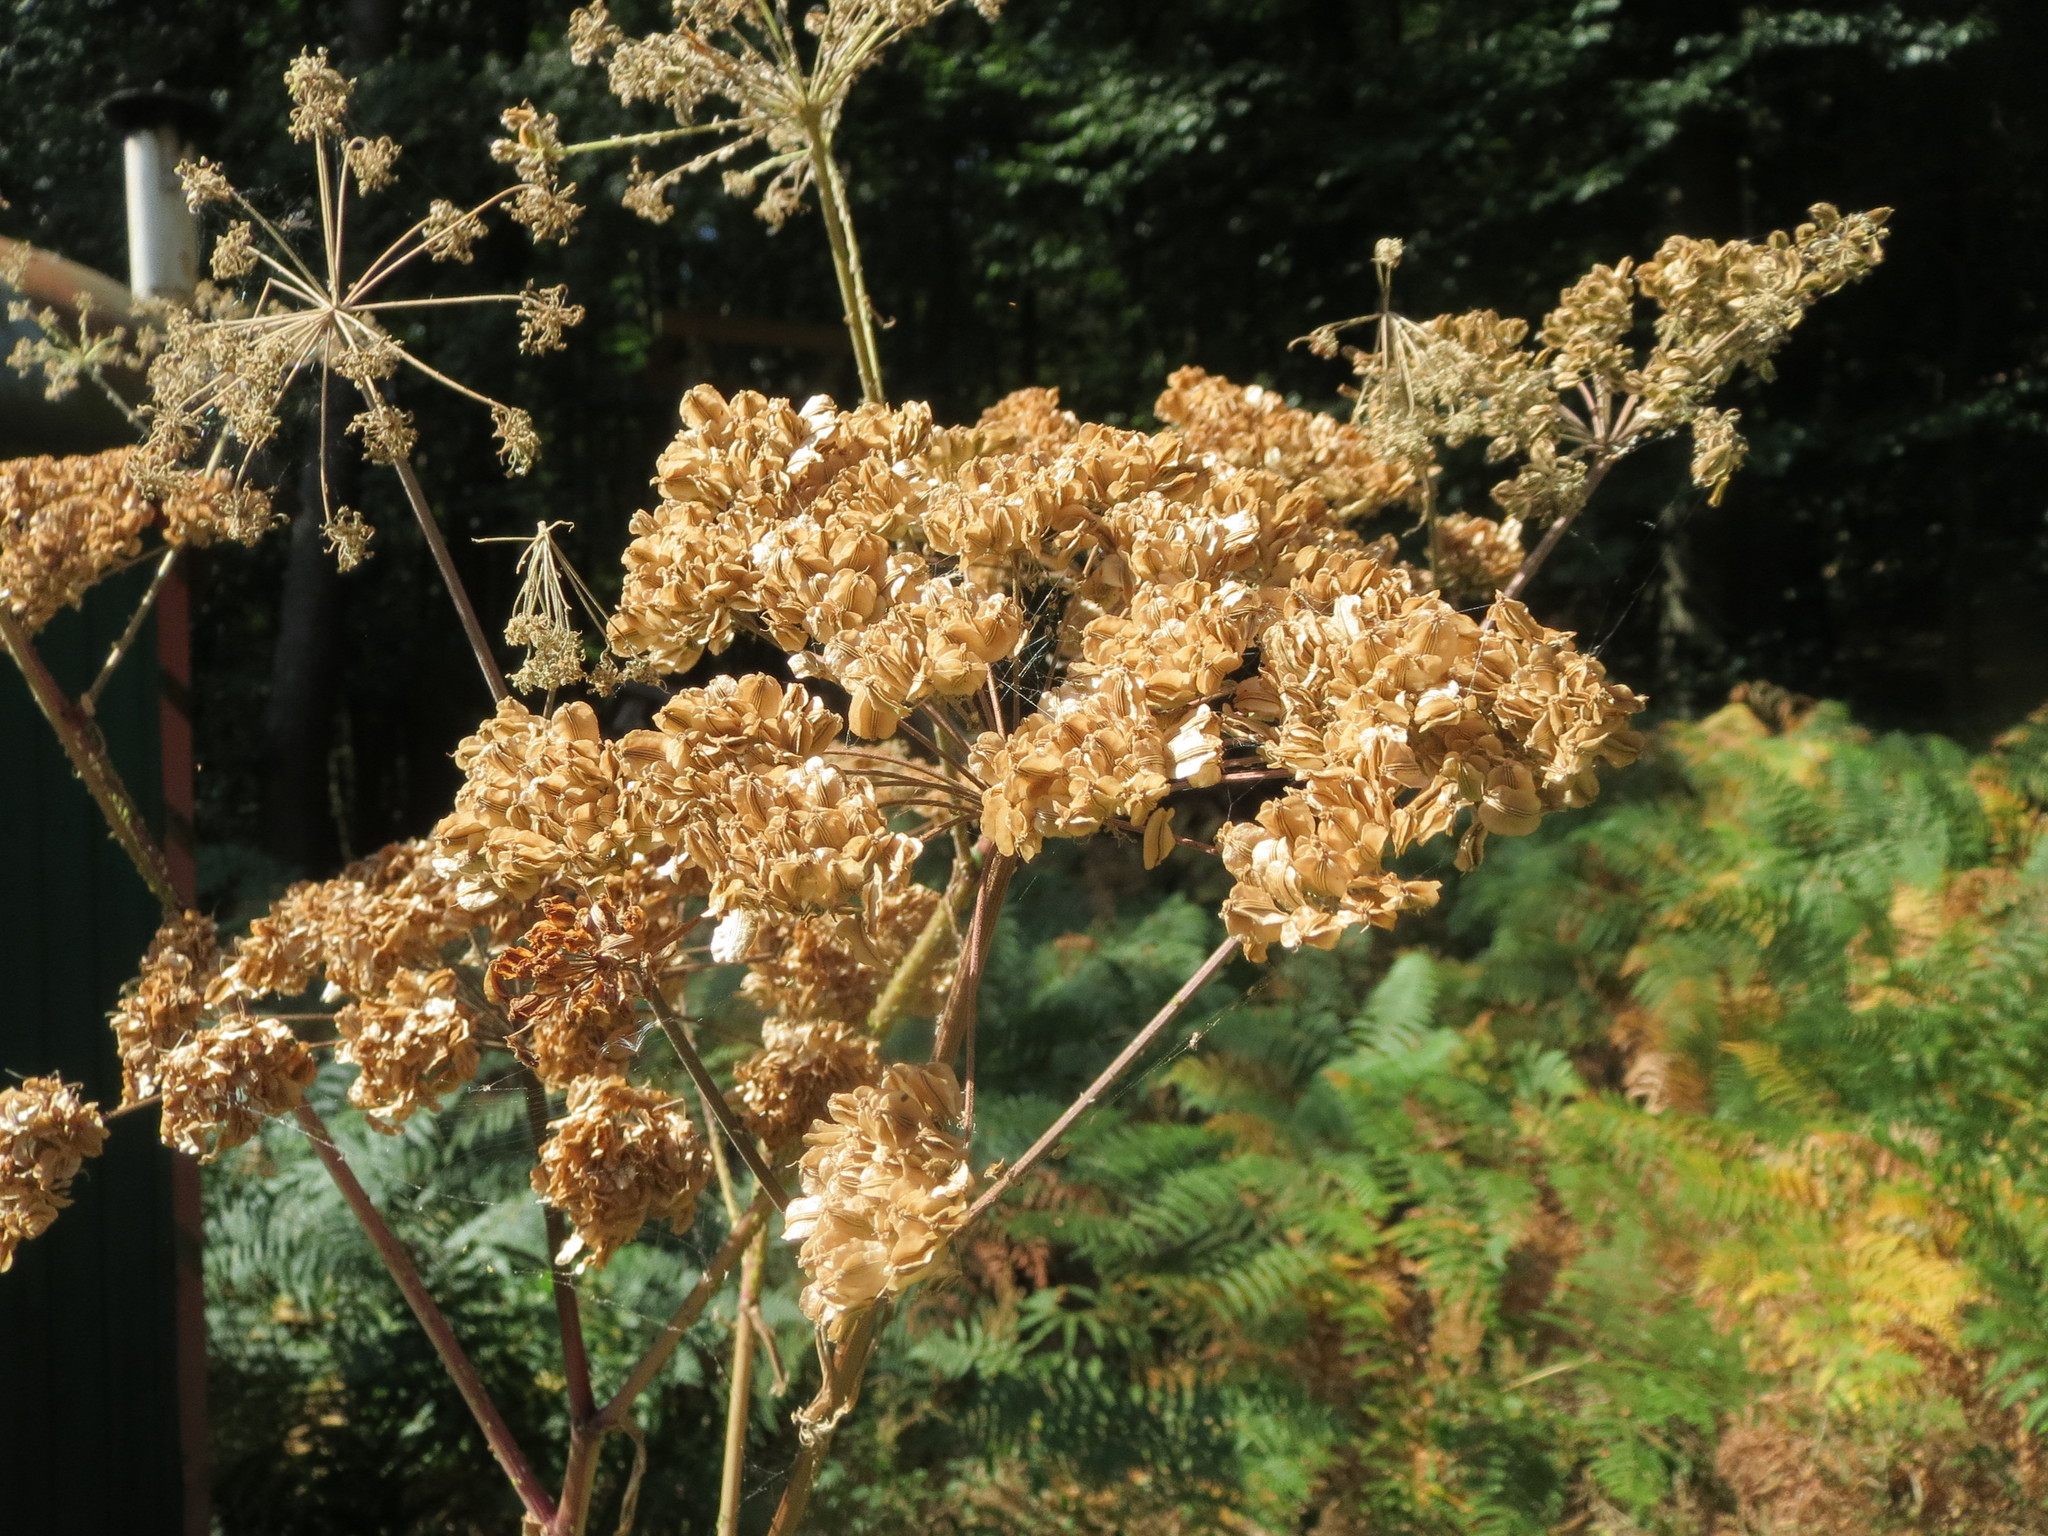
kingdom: Plantae
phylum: Tracheophyta
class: Magnoliopsida
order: Apiales
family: Apiaceae
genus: Angelica
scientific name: Angelica sylvestris
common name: Wild angelica
